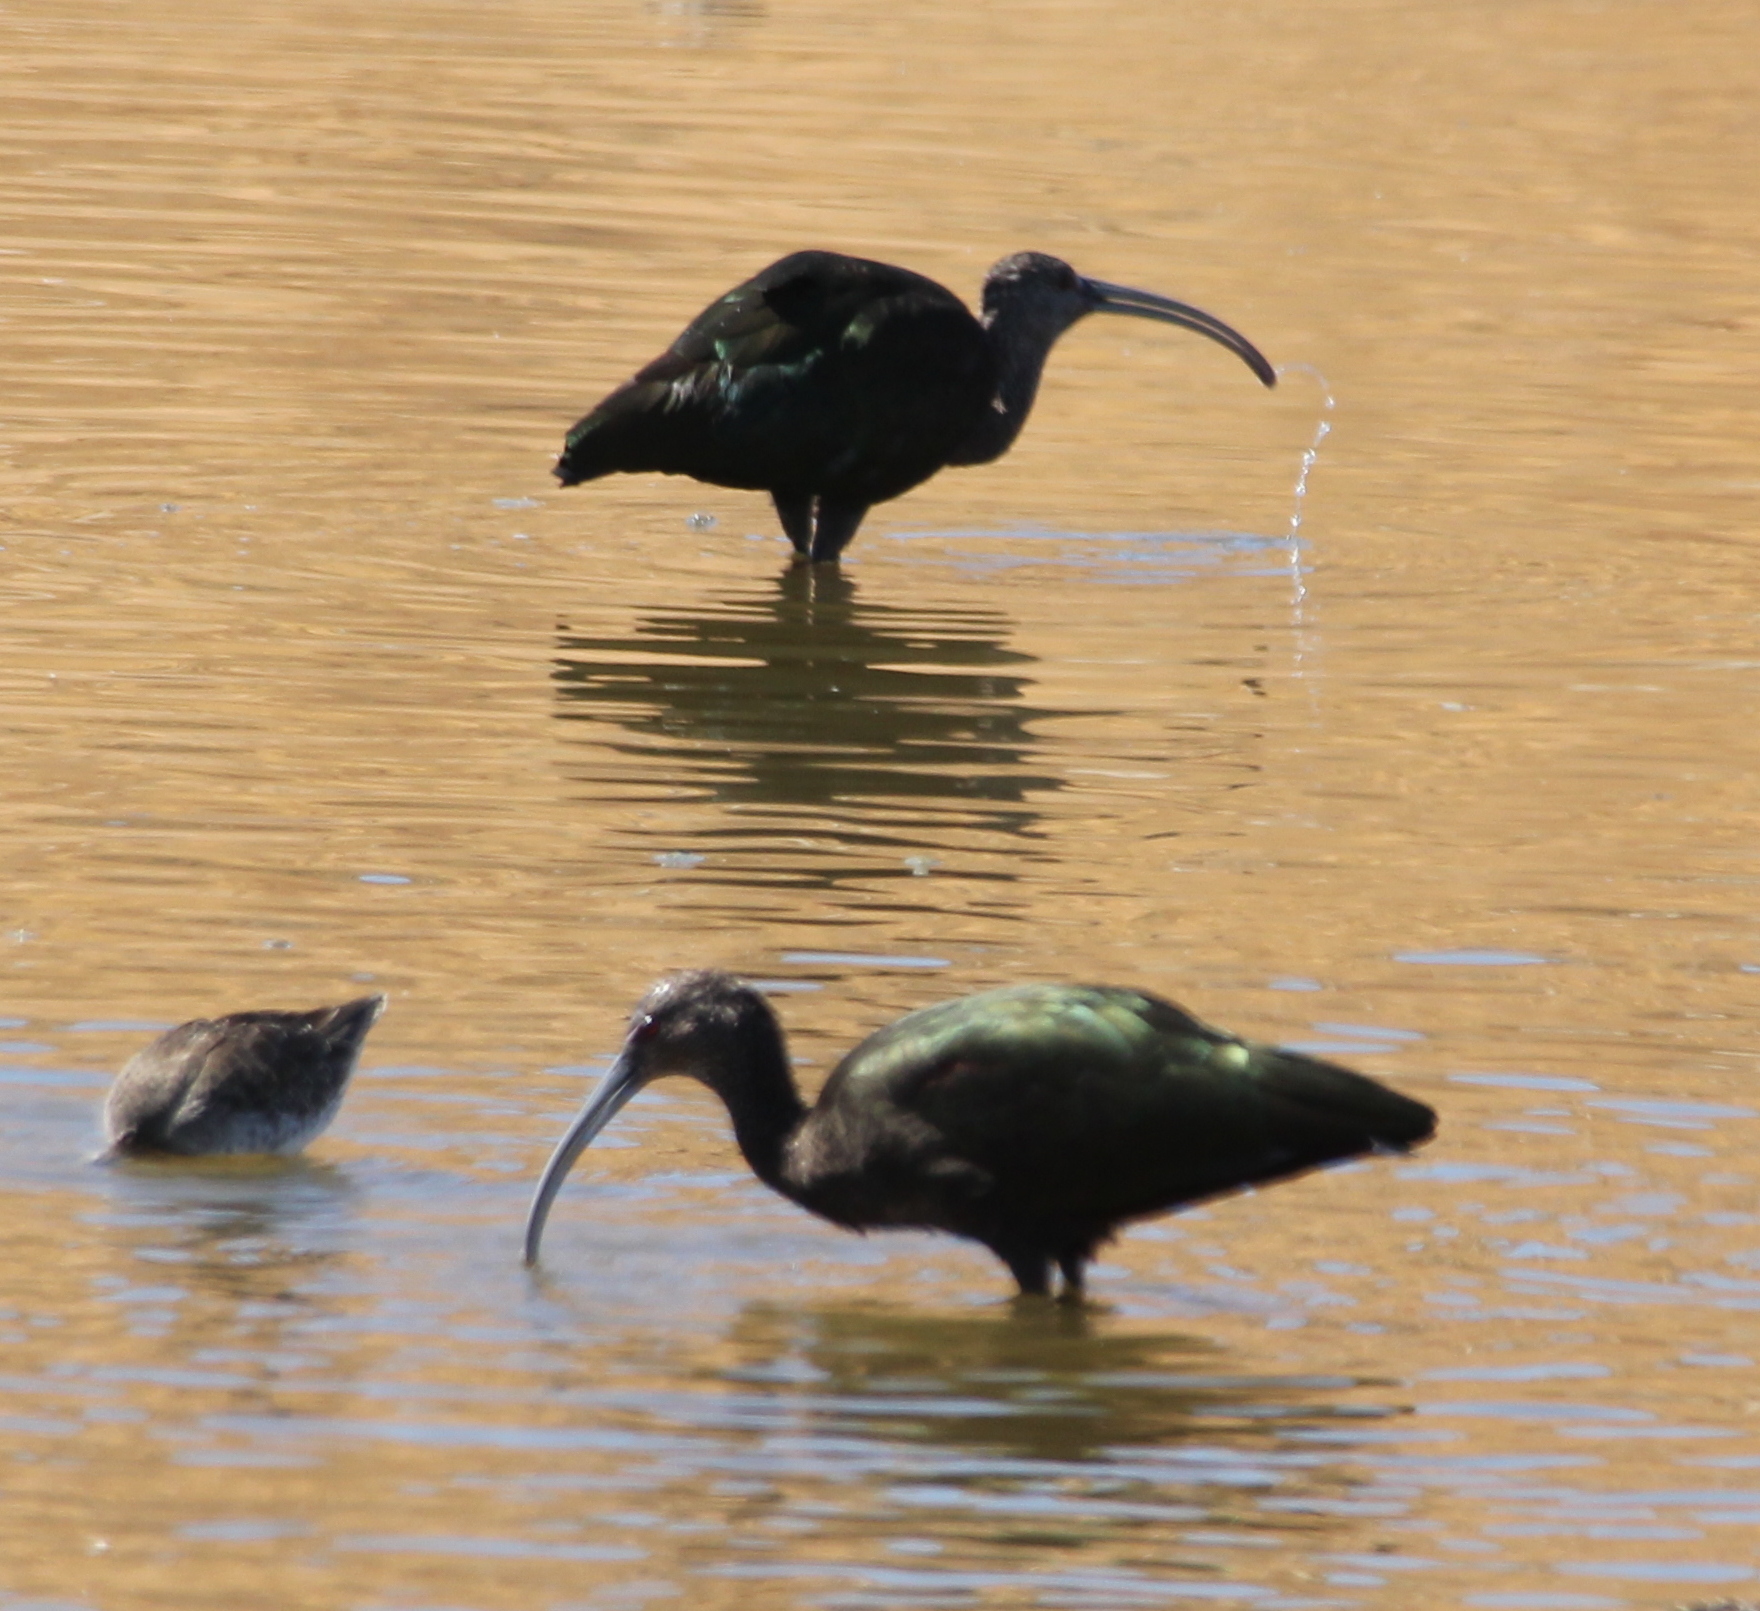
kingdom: Animalia
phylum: Chordata
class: Aves
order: Pelecaniformes
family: Threskiornithidae
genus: Plegadis
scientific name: Plegadis chihi
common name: White-faced ibis
